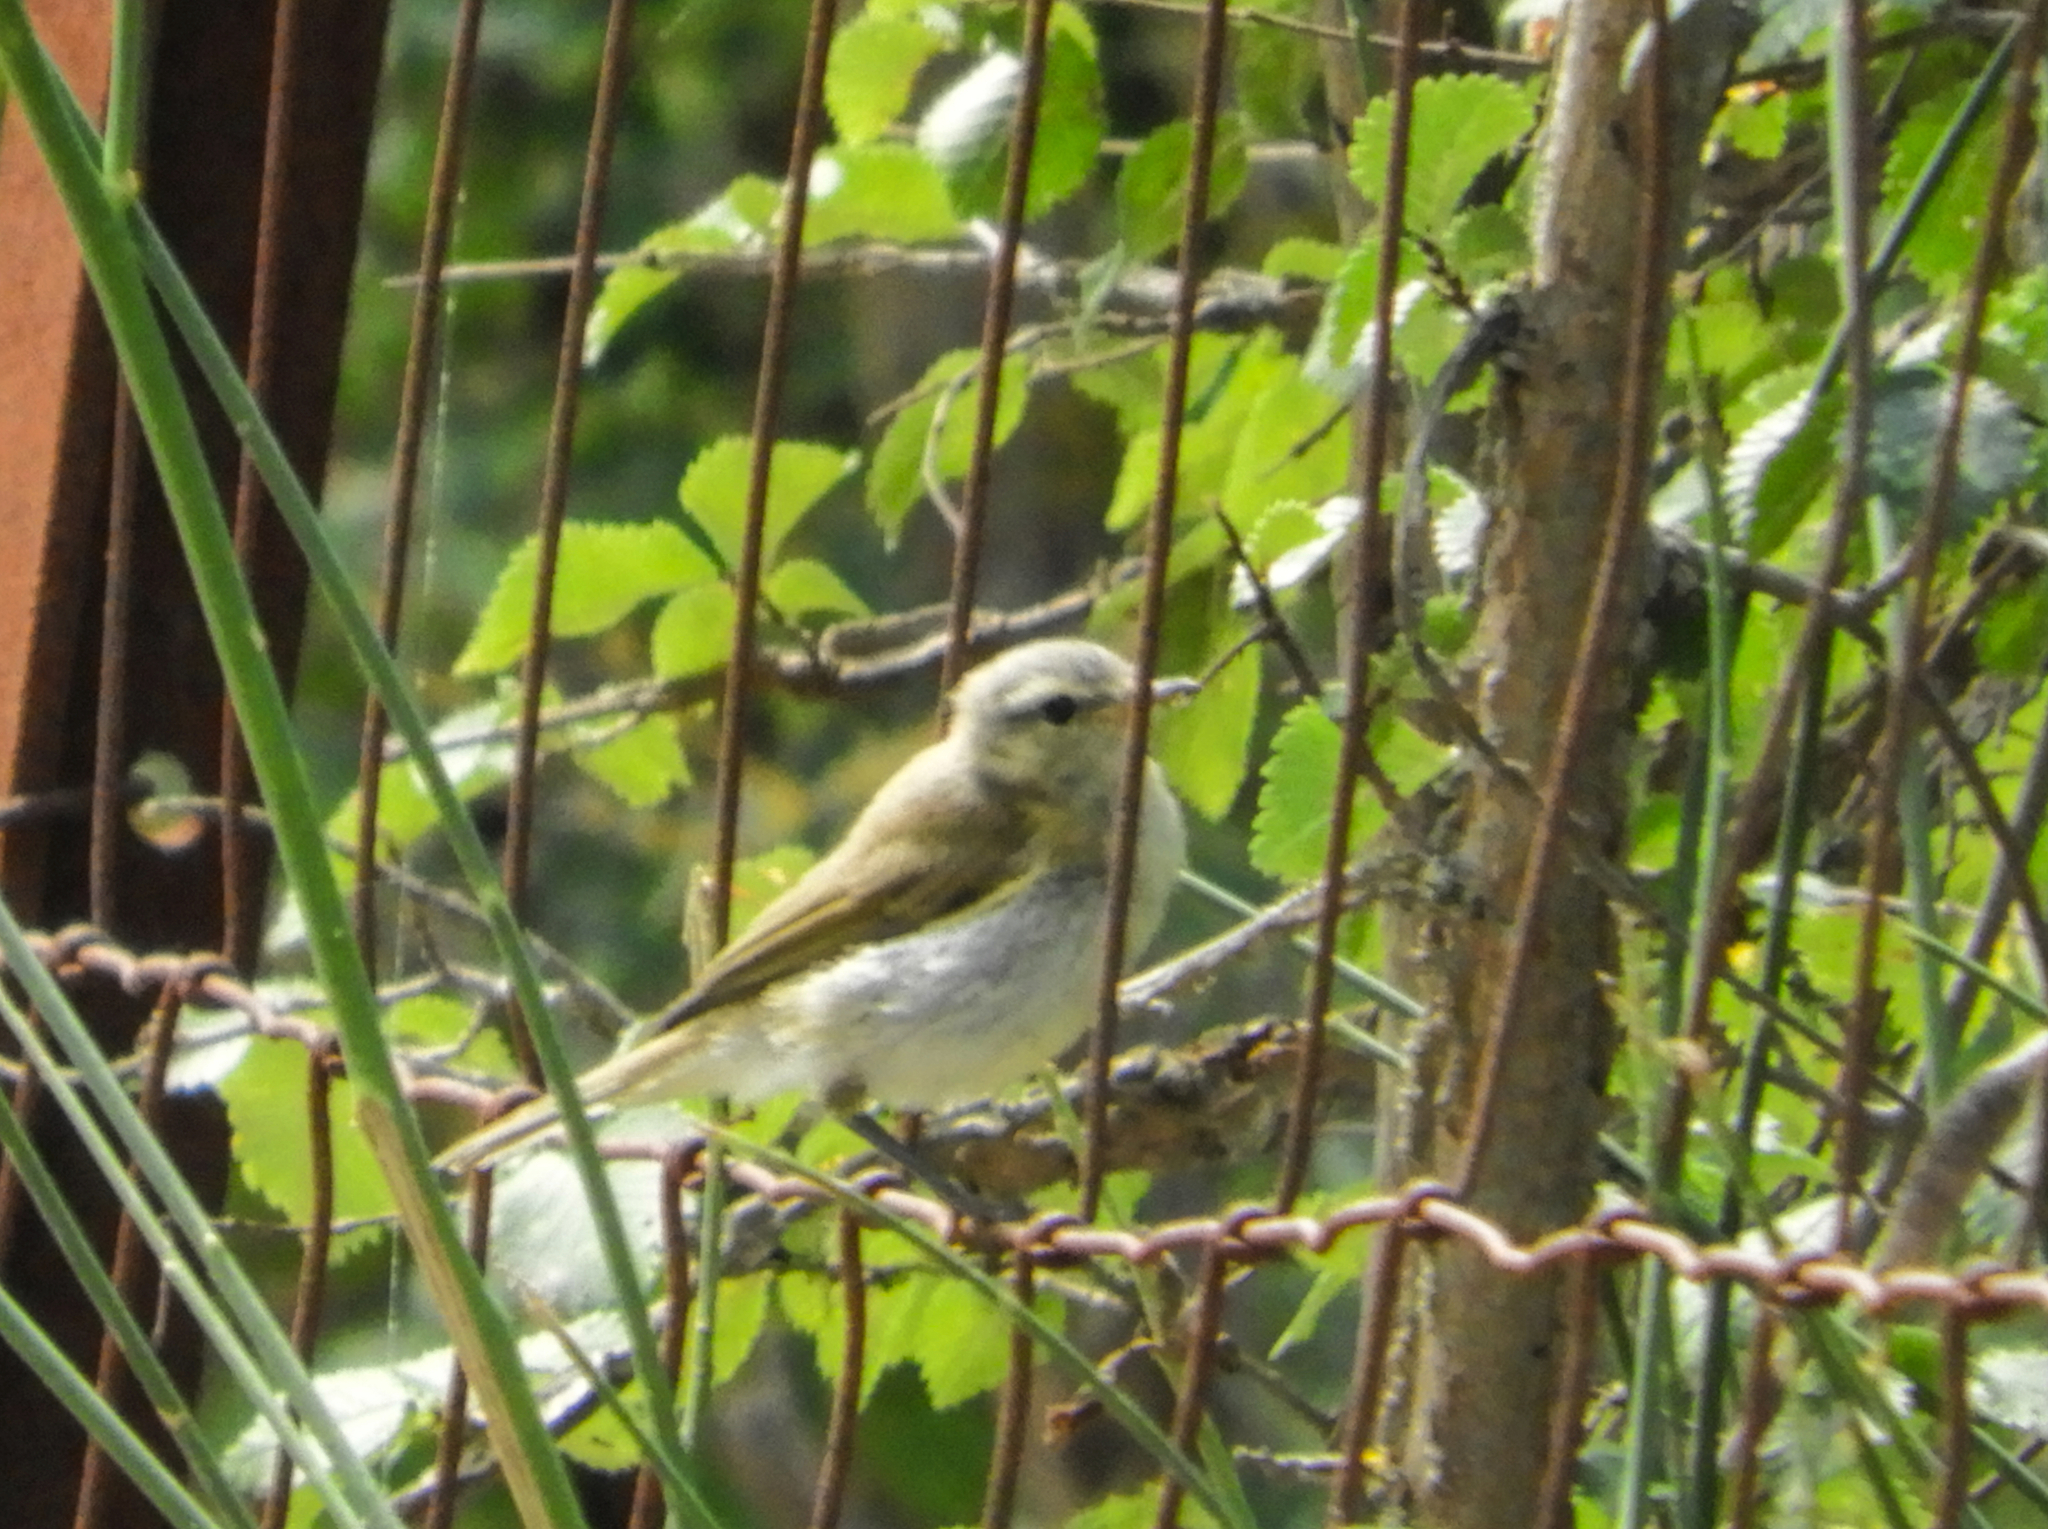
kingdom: Animalia
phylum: Chordata
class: Aves
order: Passeriformes
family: Phylloscopidae
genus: Phylloscopus
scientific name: Phylloscopus
